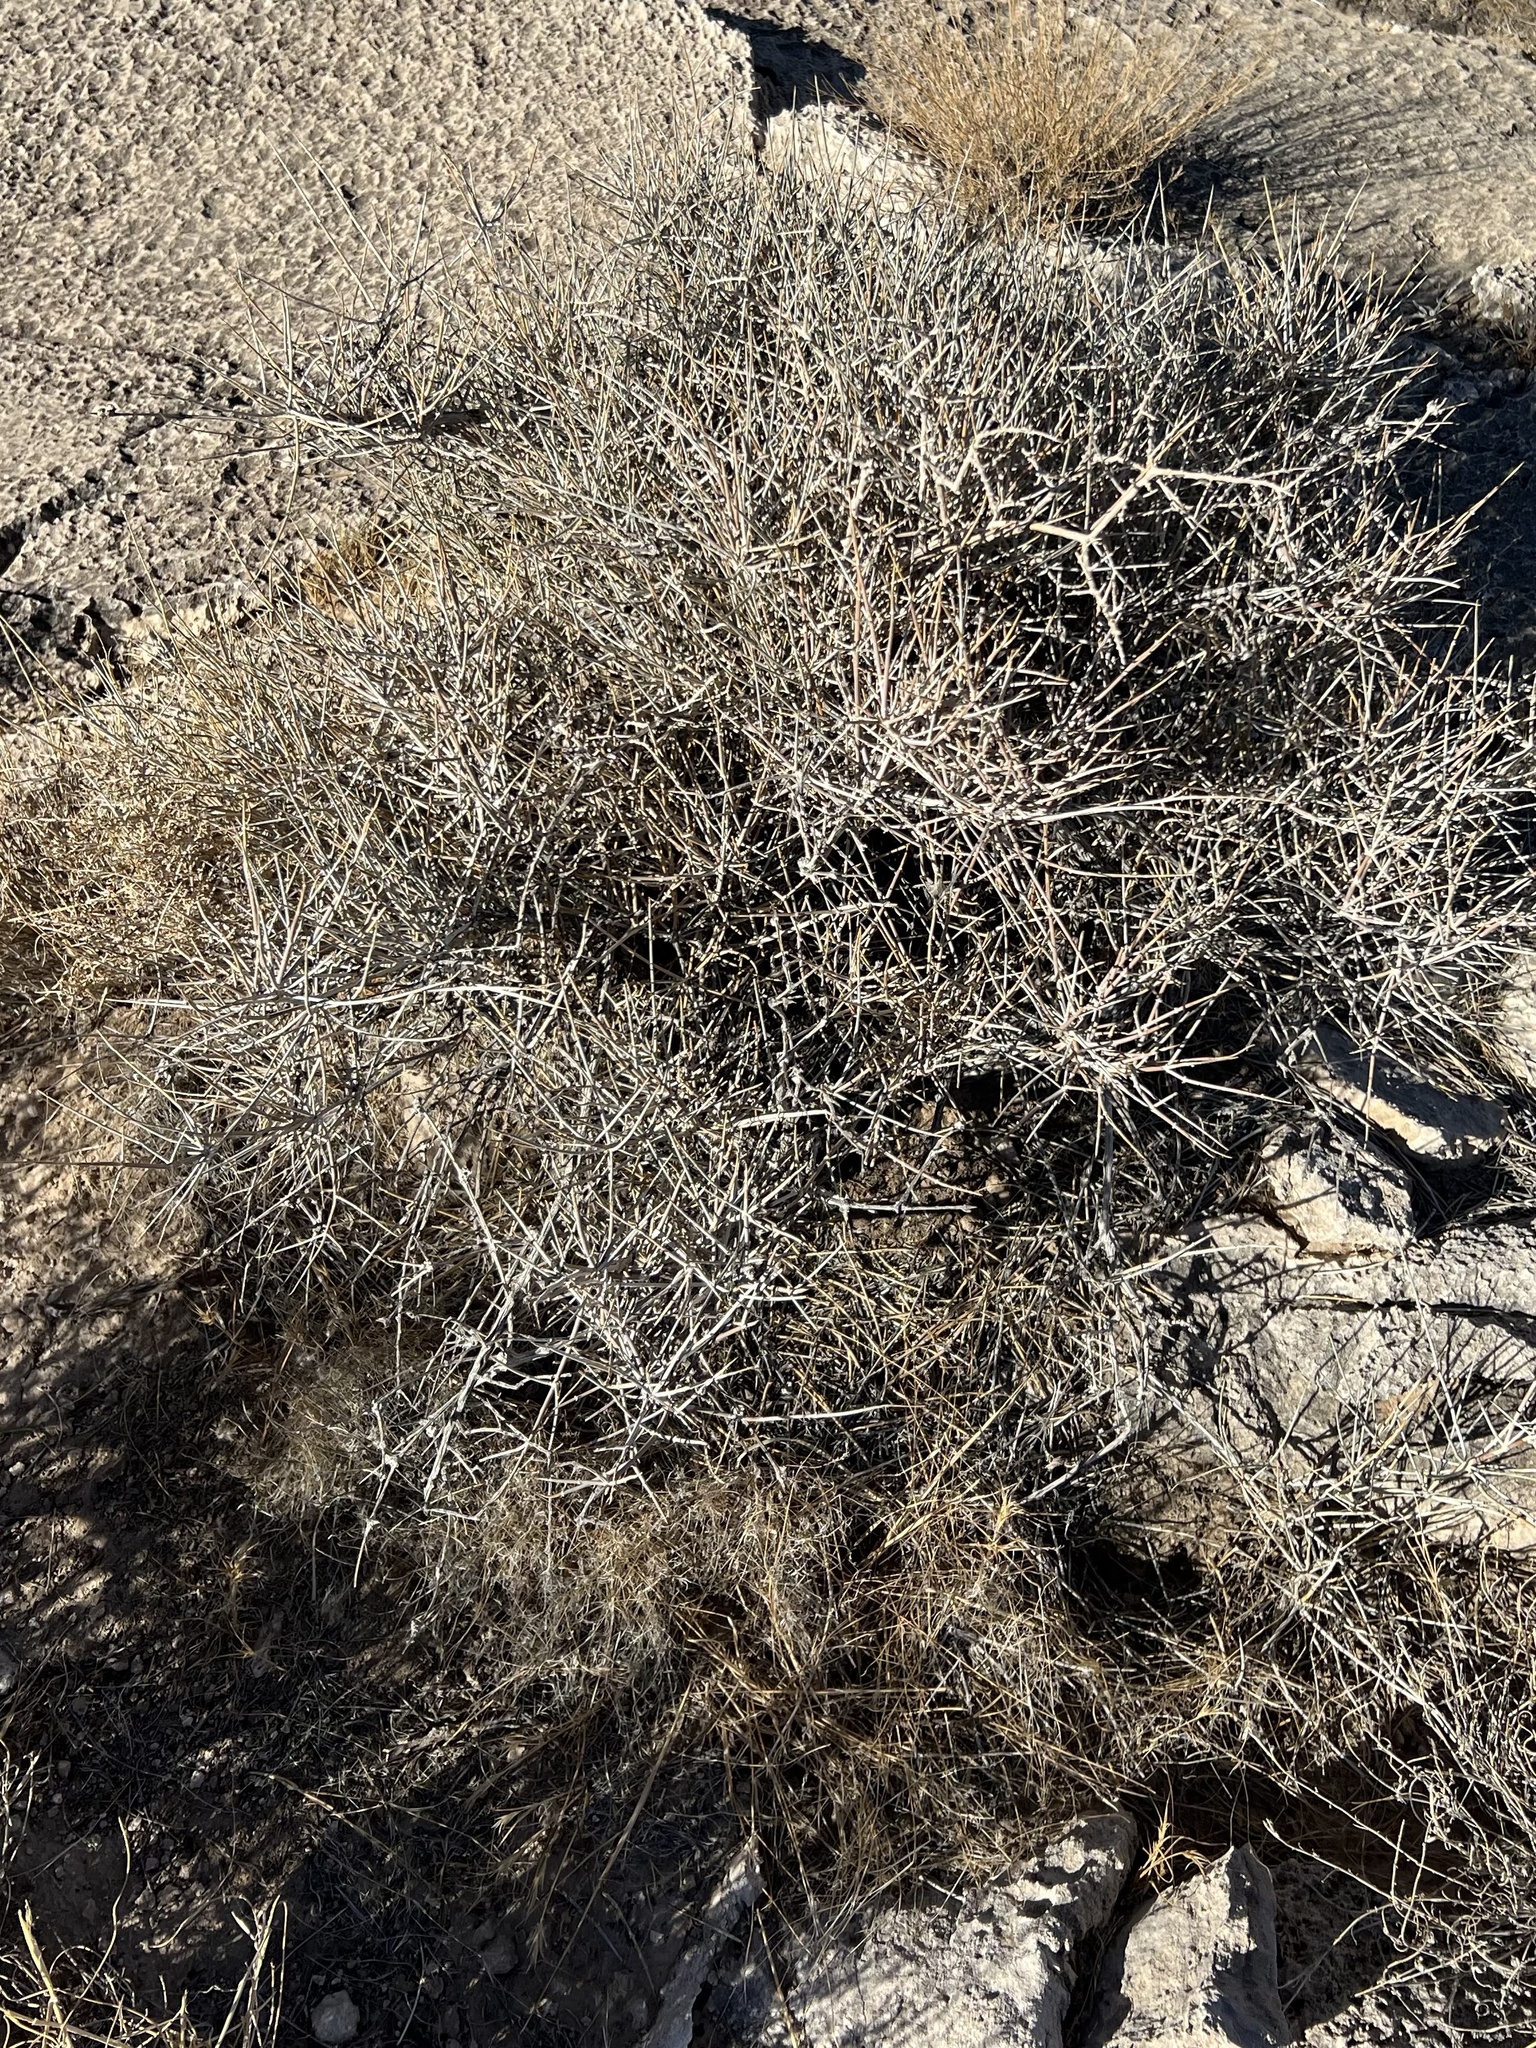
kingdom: Plantae
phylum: Tracheophyta
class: Gnetopsida
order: Ephedrales
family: Ephedraceae
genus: Ephedra
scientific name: Ephedra nevadensis
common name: Gray ephedra
